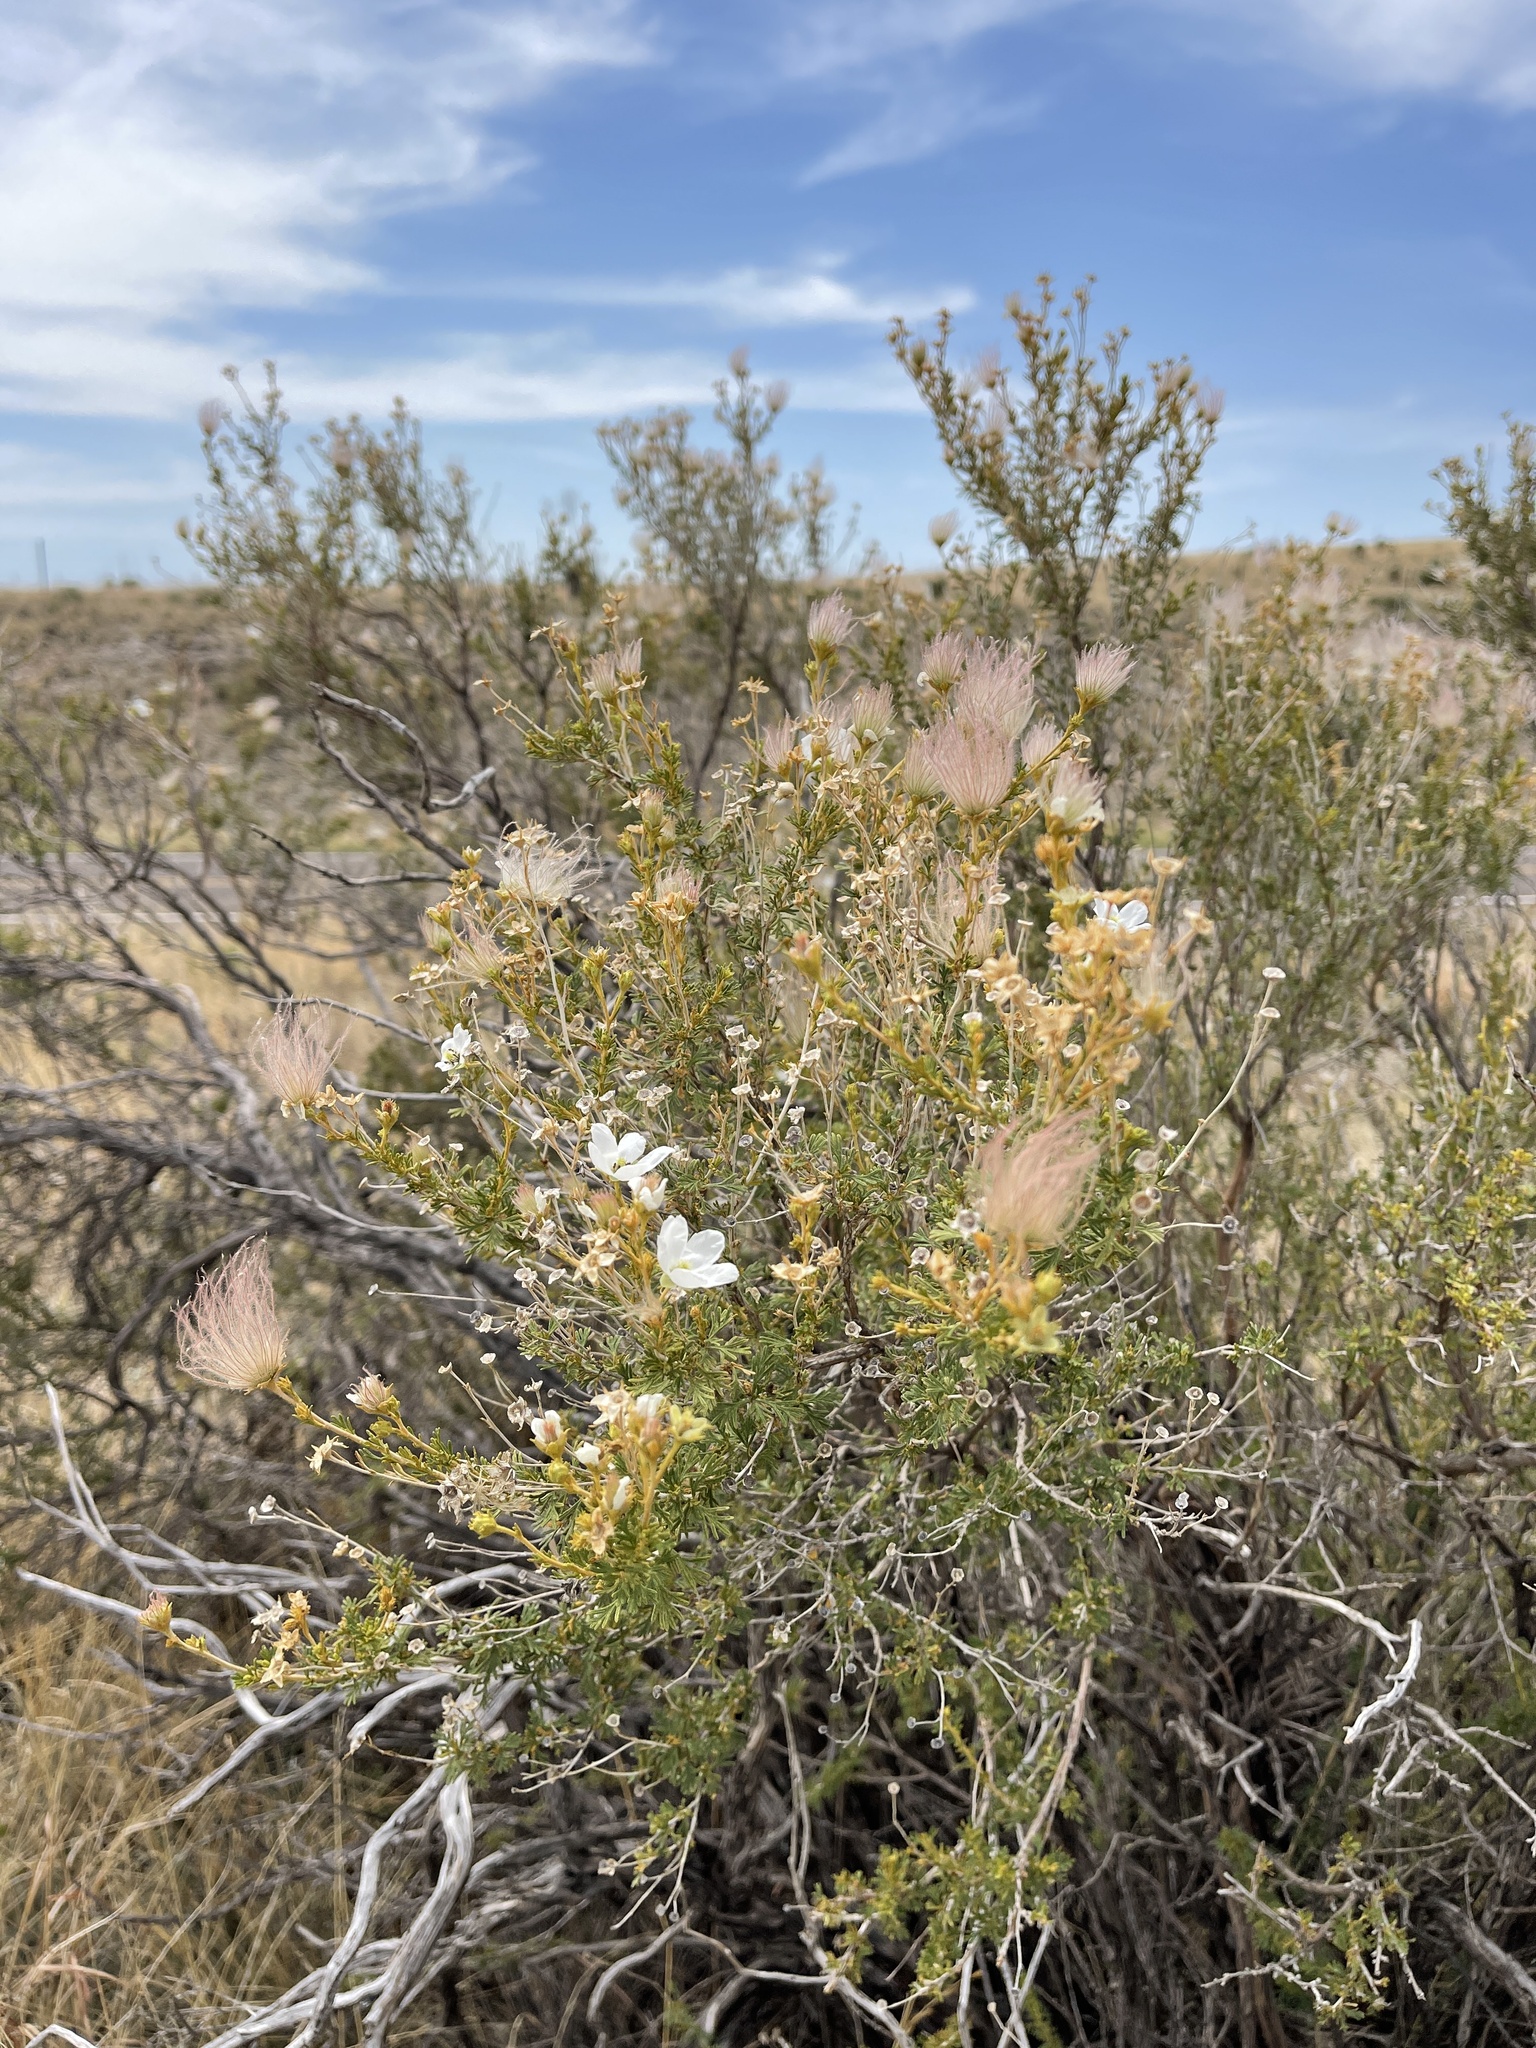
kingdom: Plantae
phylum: Tracheophyta
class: Magnoliopsida
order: Rosales
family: Rosaceae
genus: Fallugia
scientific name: Fallugia paradoxa
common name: Apache-plume
